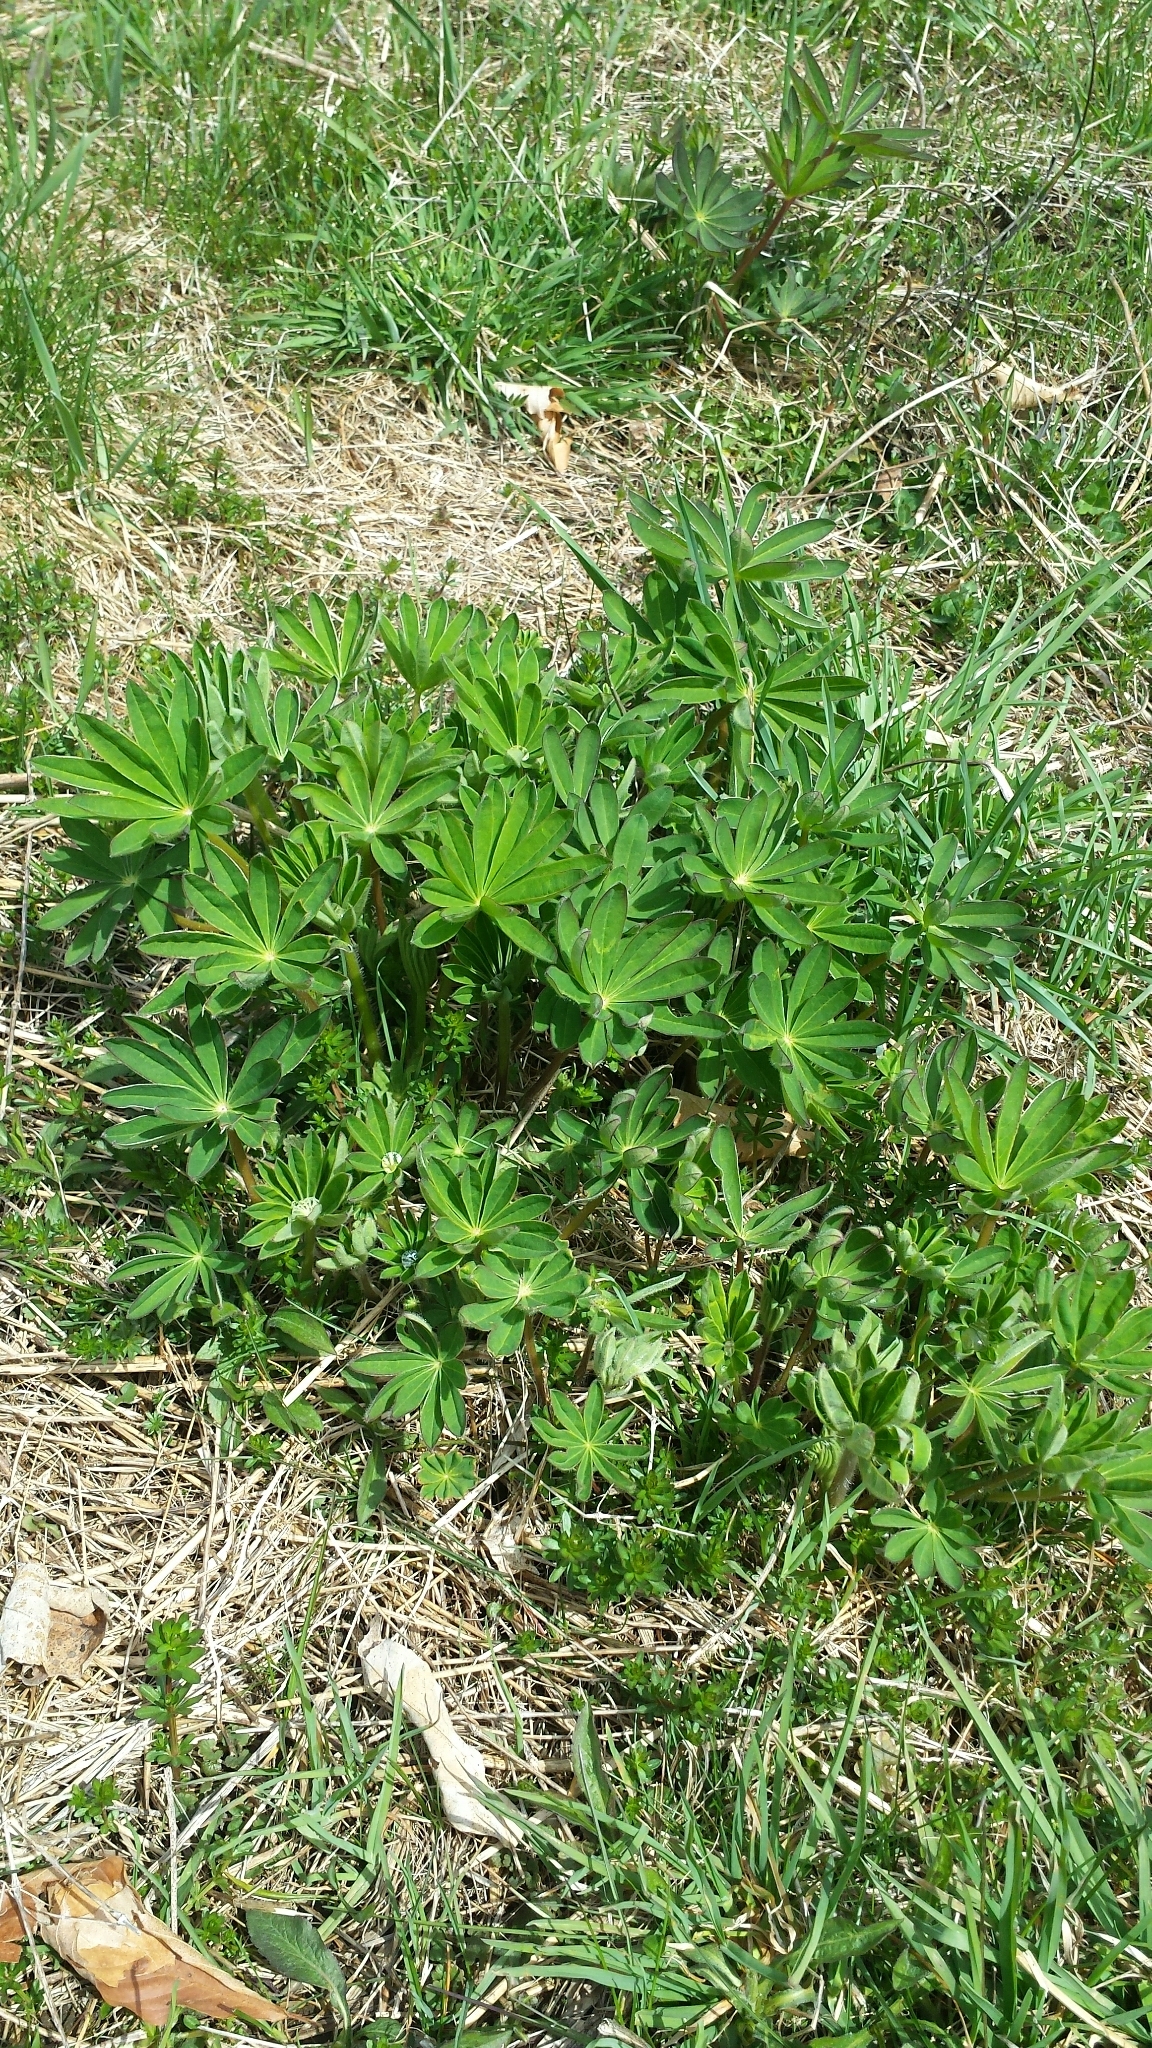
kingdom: Plantae
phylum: Tracheophyta
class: Magnoliopsida
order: Fabales
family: Fabaceae
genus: Lupinus
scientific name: Lupinus polyphyllus
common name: Garden lupin
